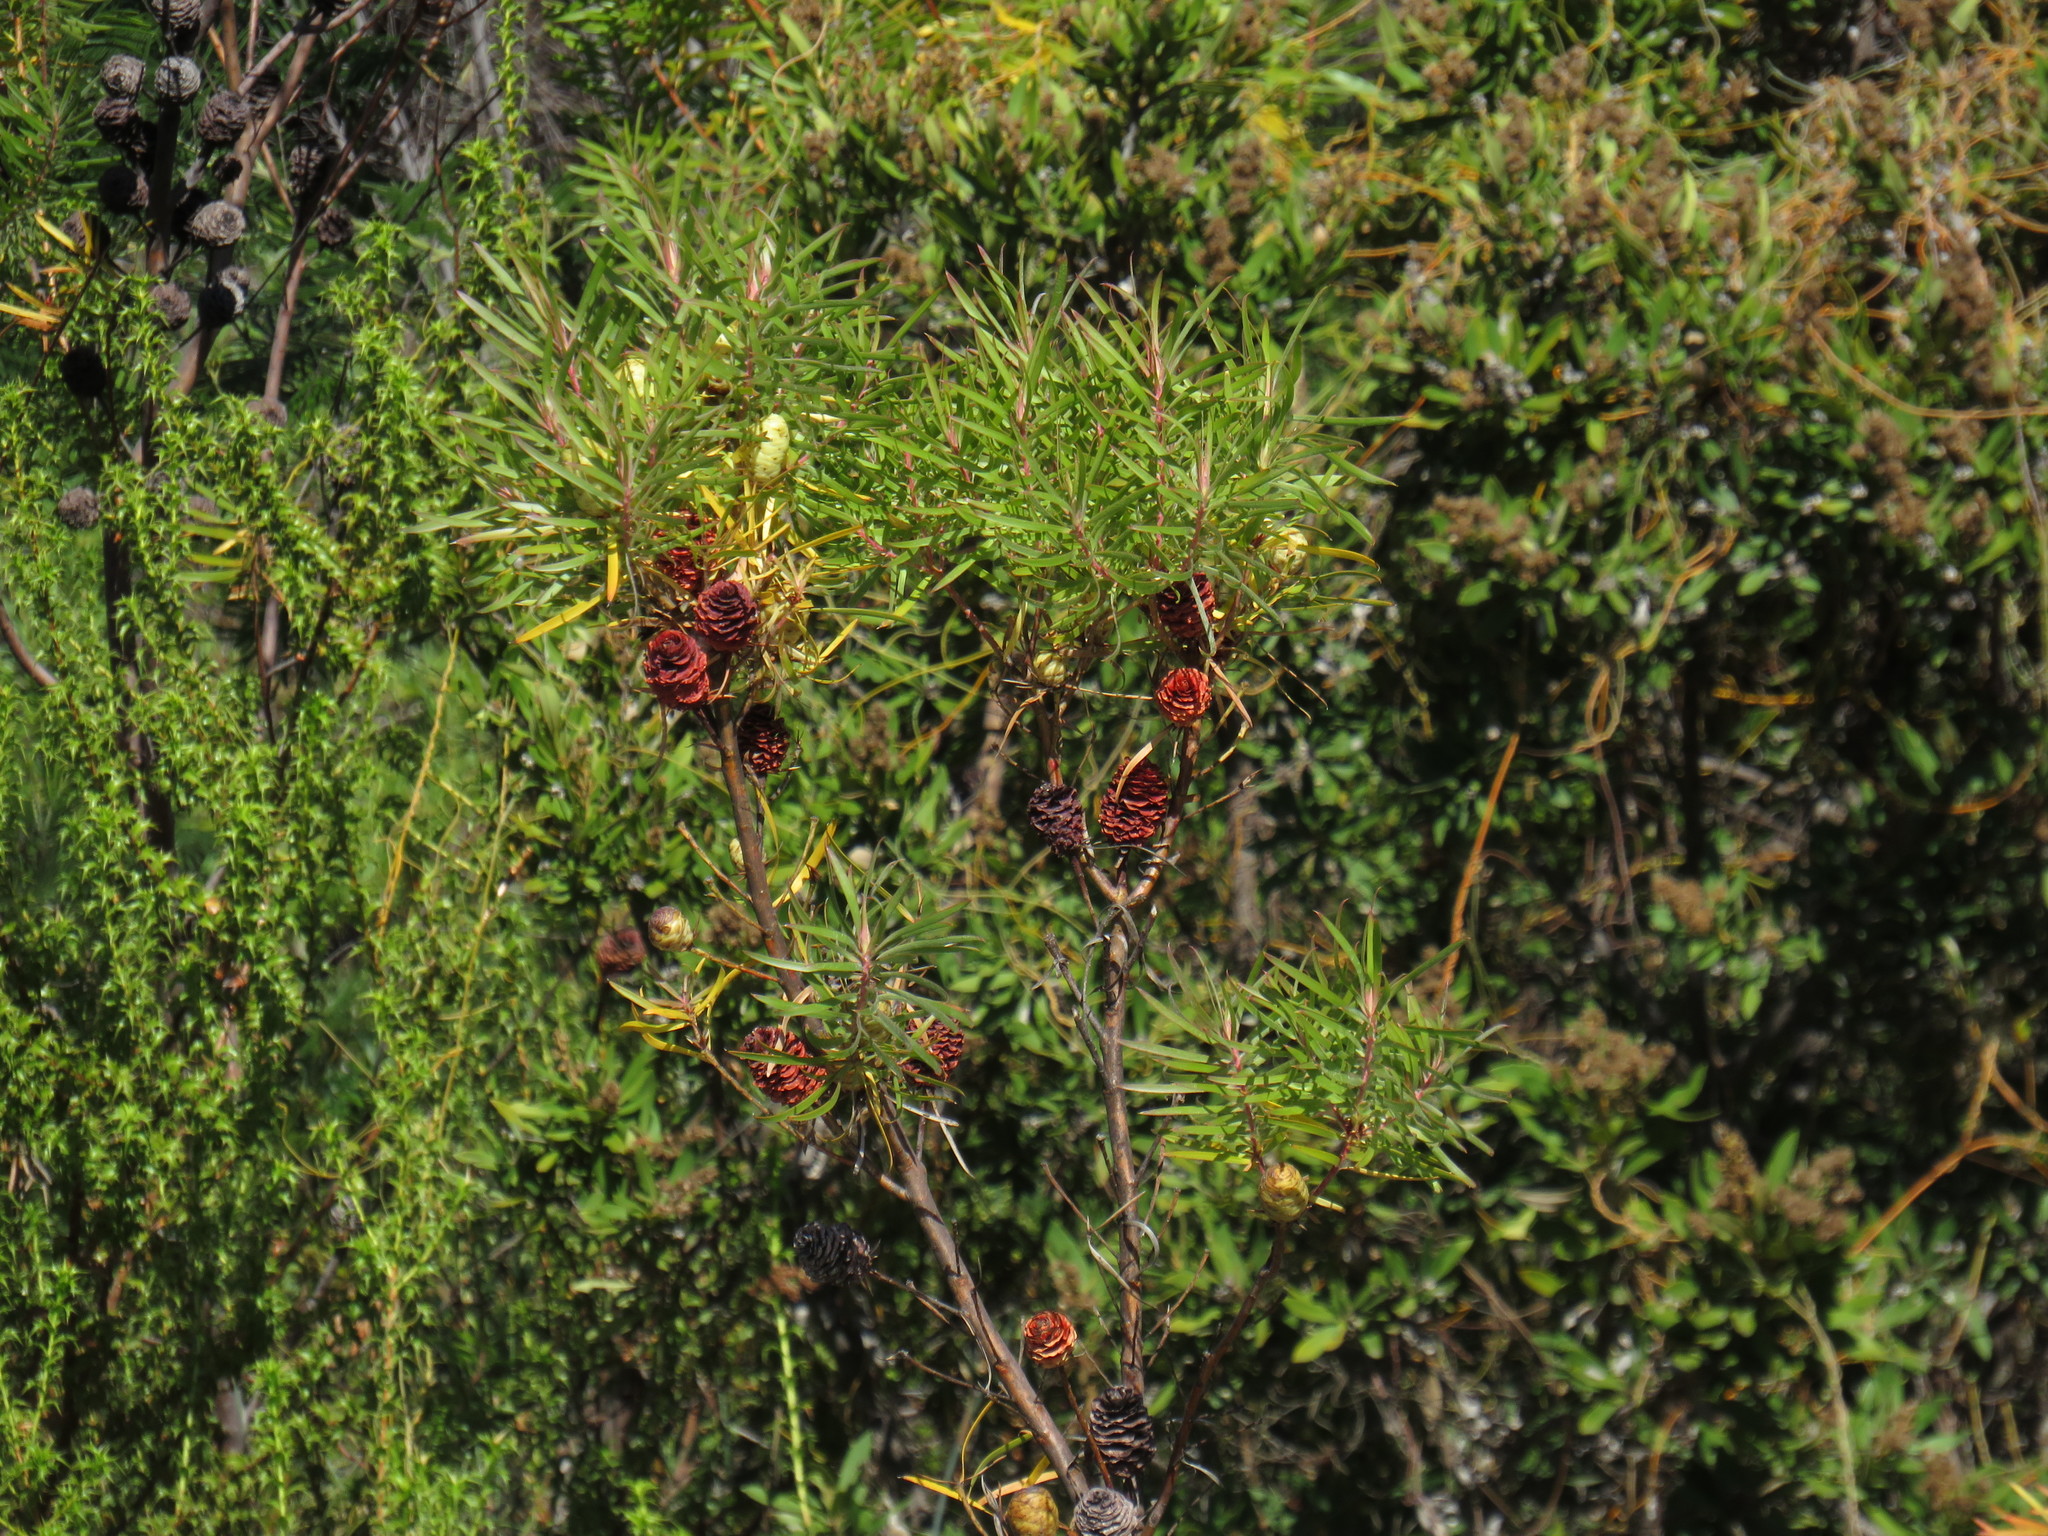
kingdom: Plantae
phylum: Tracheophyta
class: Magnoliopsida
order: Proteales
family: Proteaceae
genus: Leucadendron
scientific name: Leucadendron salicifolium
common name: Common stream conebush
